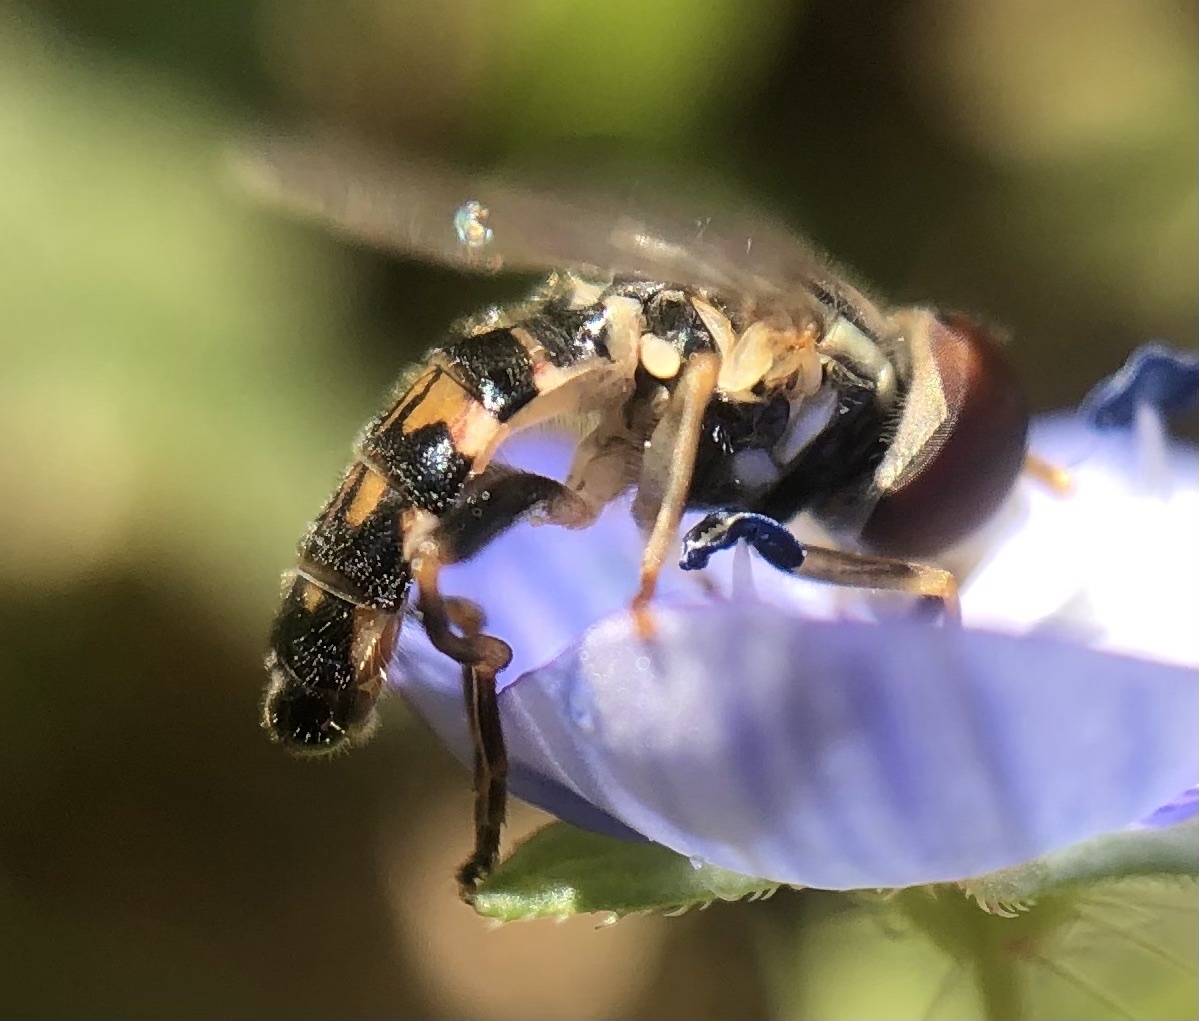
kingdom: Animalia
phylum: Arthropoda
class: Insecta
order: Diptera
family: Syrphidae
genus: Toxomerus
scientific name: Toxomerus geminatus
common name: Eastern calligrapher
